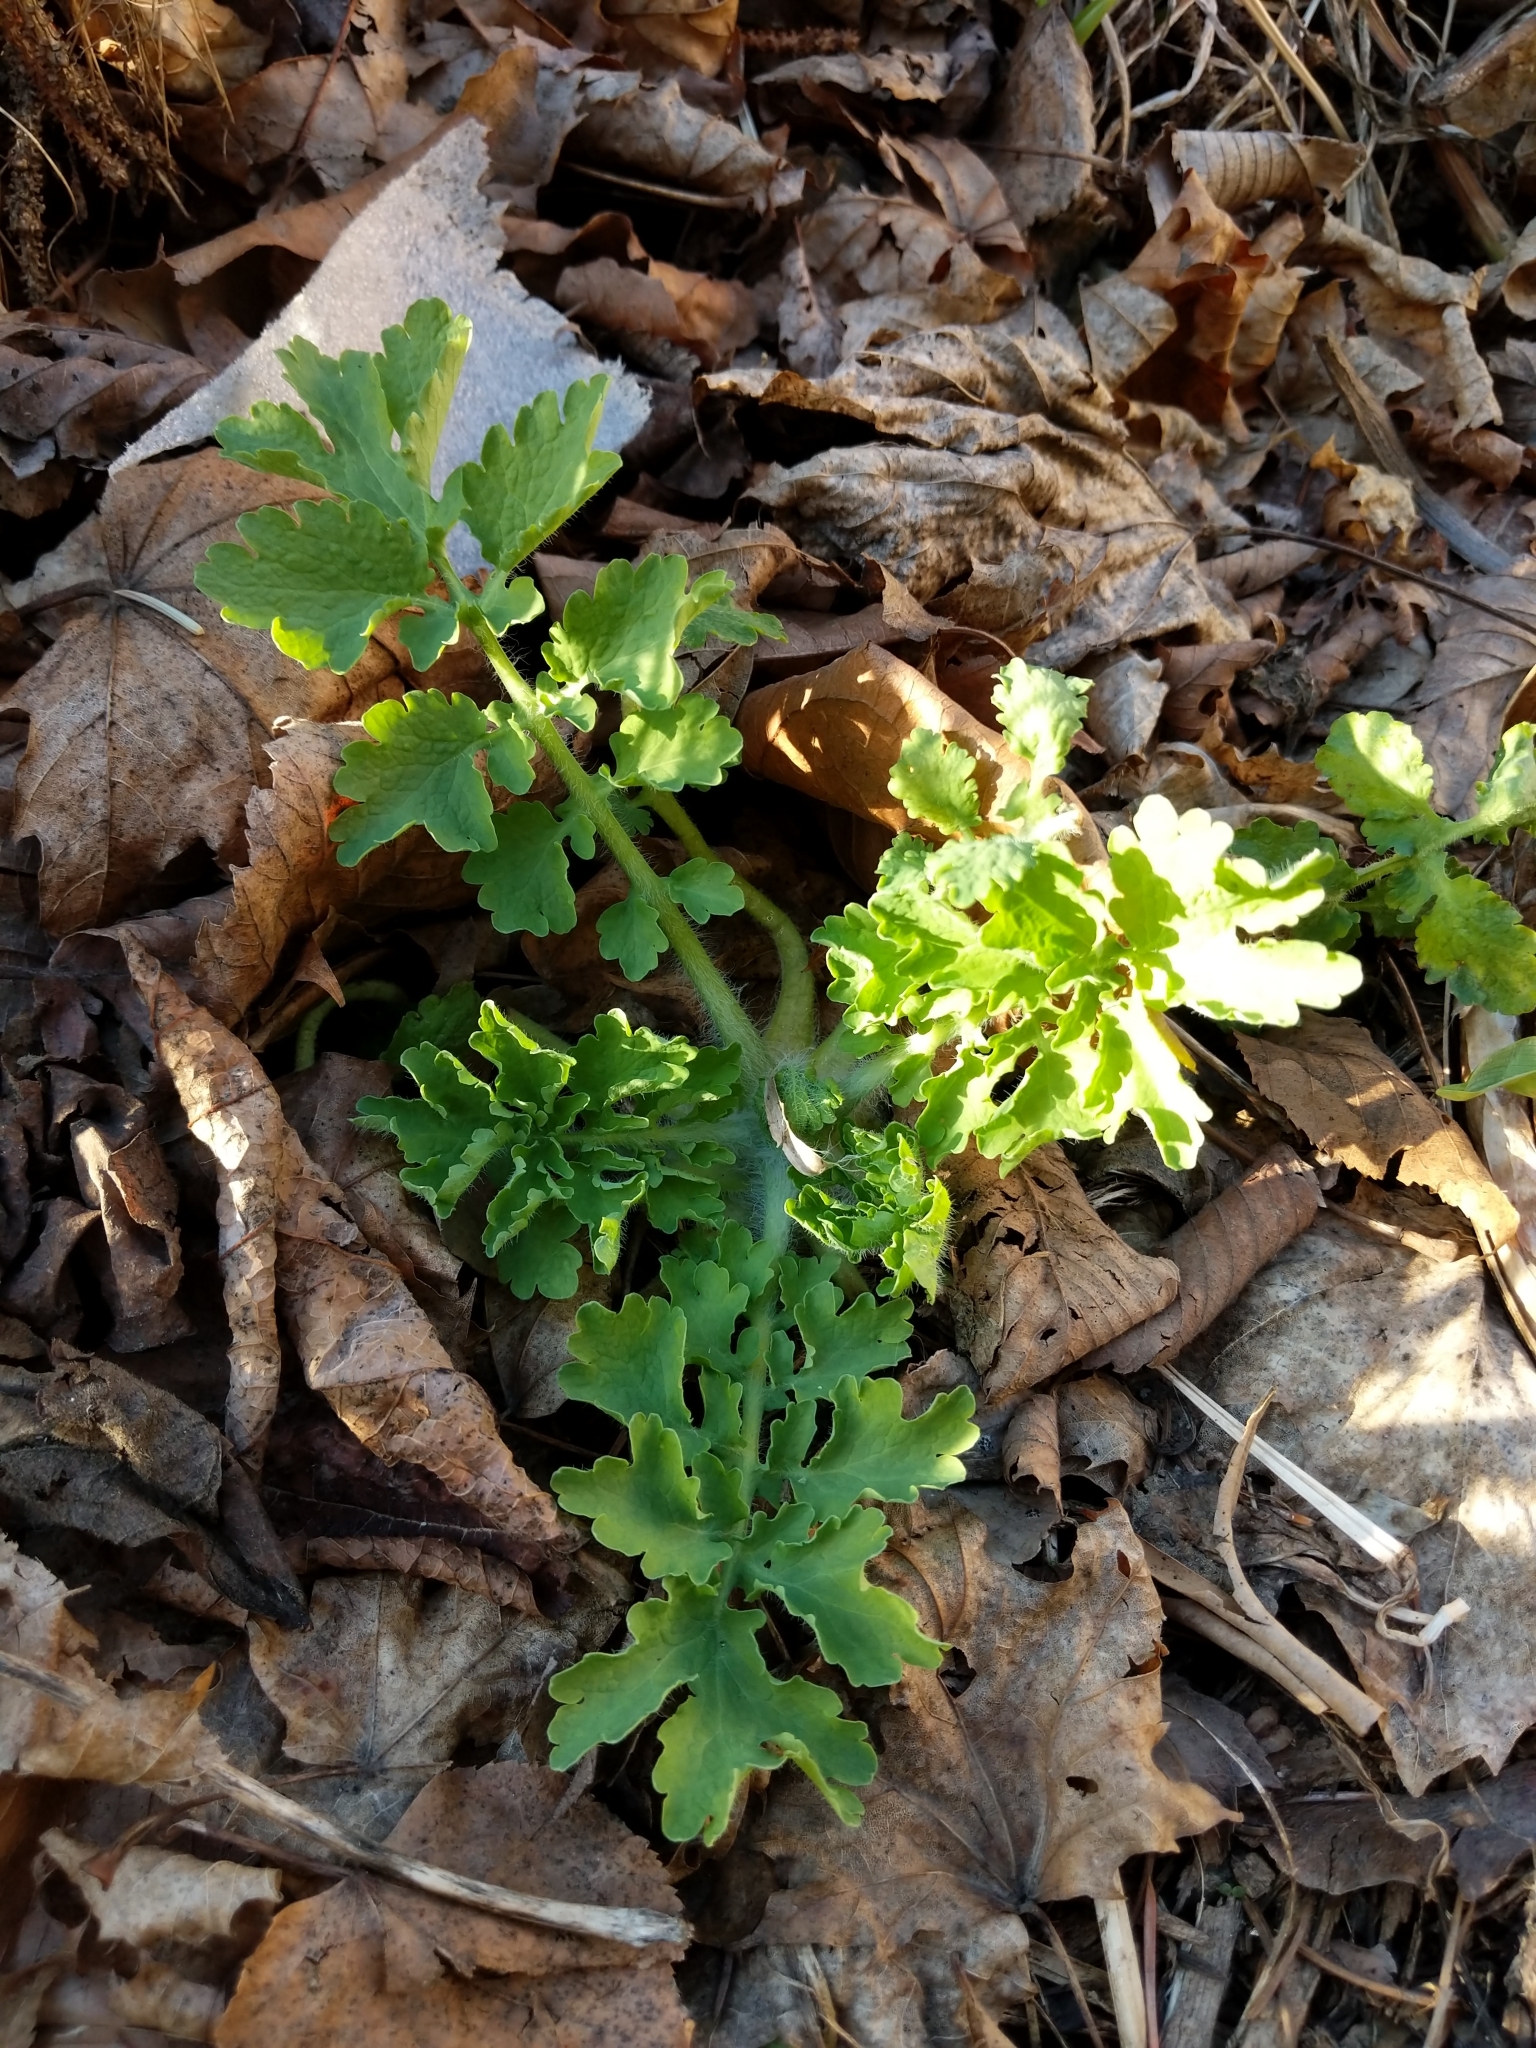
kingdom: Plantae
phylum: Tracheophyta
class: Magnoliopsida
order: Ranunculales
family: Papaveraceae
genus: Chelidonium
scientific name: Chelidonium majus
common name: Greater celandine
